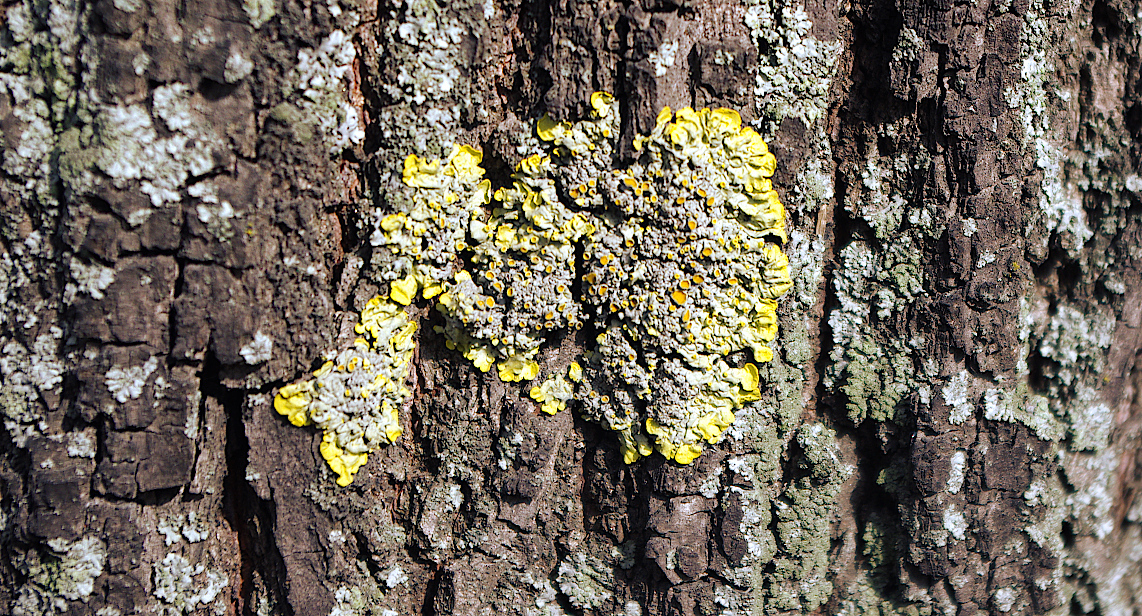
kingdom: Fungi
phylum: Ascomycota
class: Lecanoromycetes
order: Teloschistales
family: Teloschistaceae
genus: Xanthoria
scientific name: Xanthoria parietina
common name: Common orange lichen
